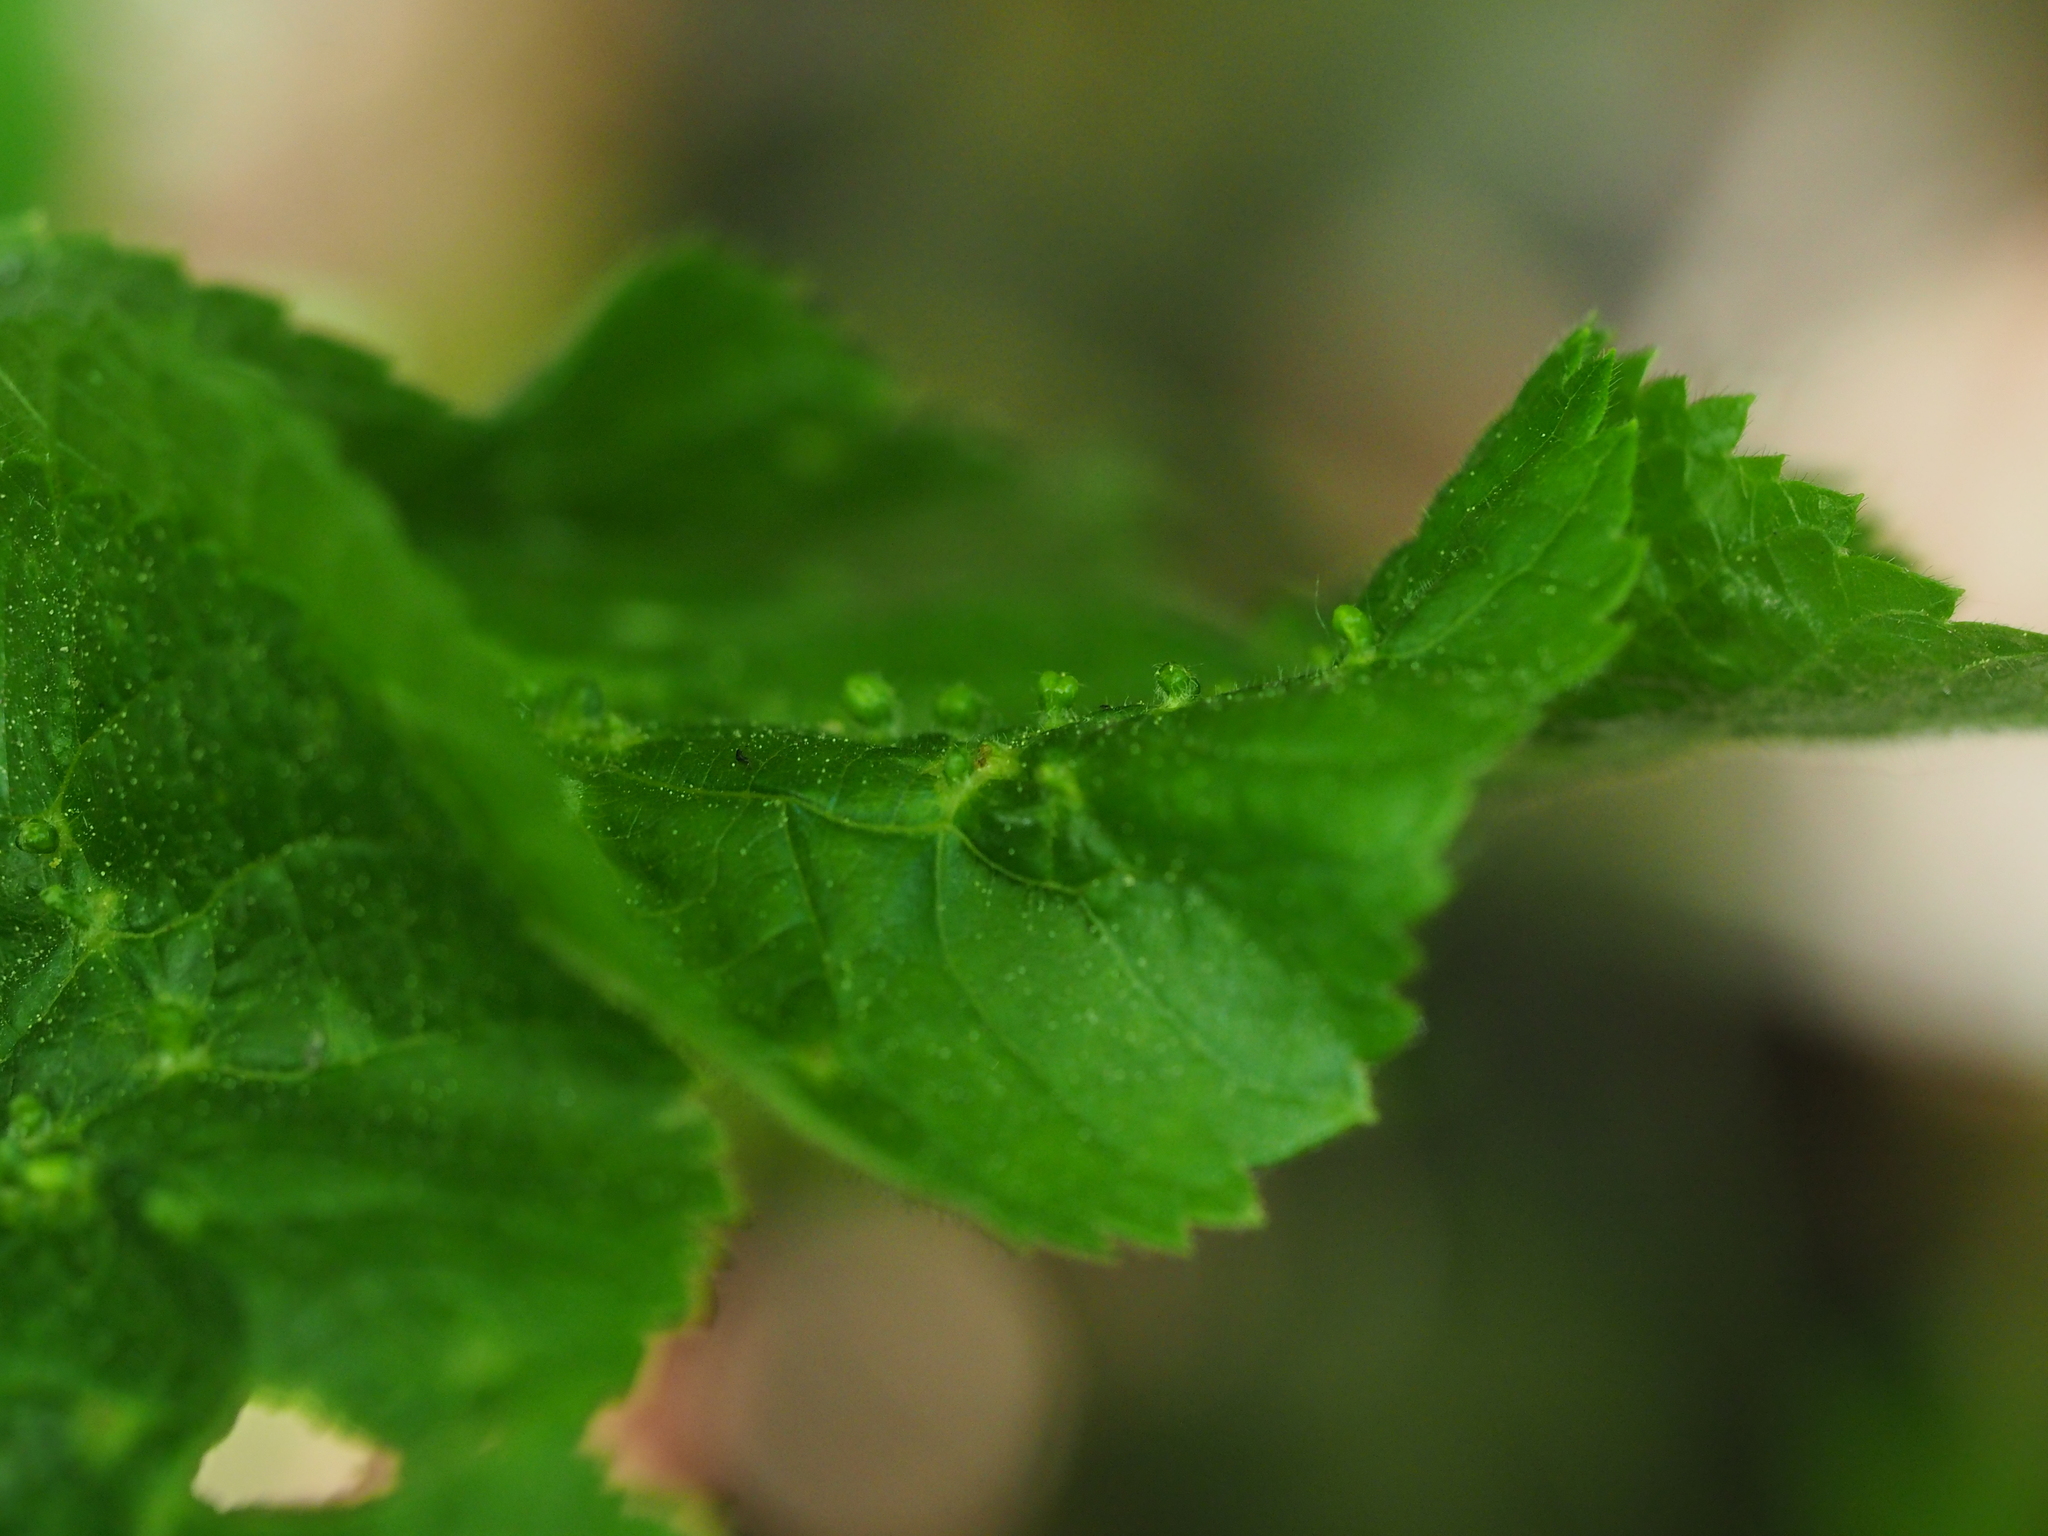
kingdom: Animalia
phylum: Arthropoda
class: Arachnida
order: Trombidiformes
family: Eriophyidae
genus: Eriophyes
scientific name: Eriophyes tiliae
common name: Red nail gall mite
